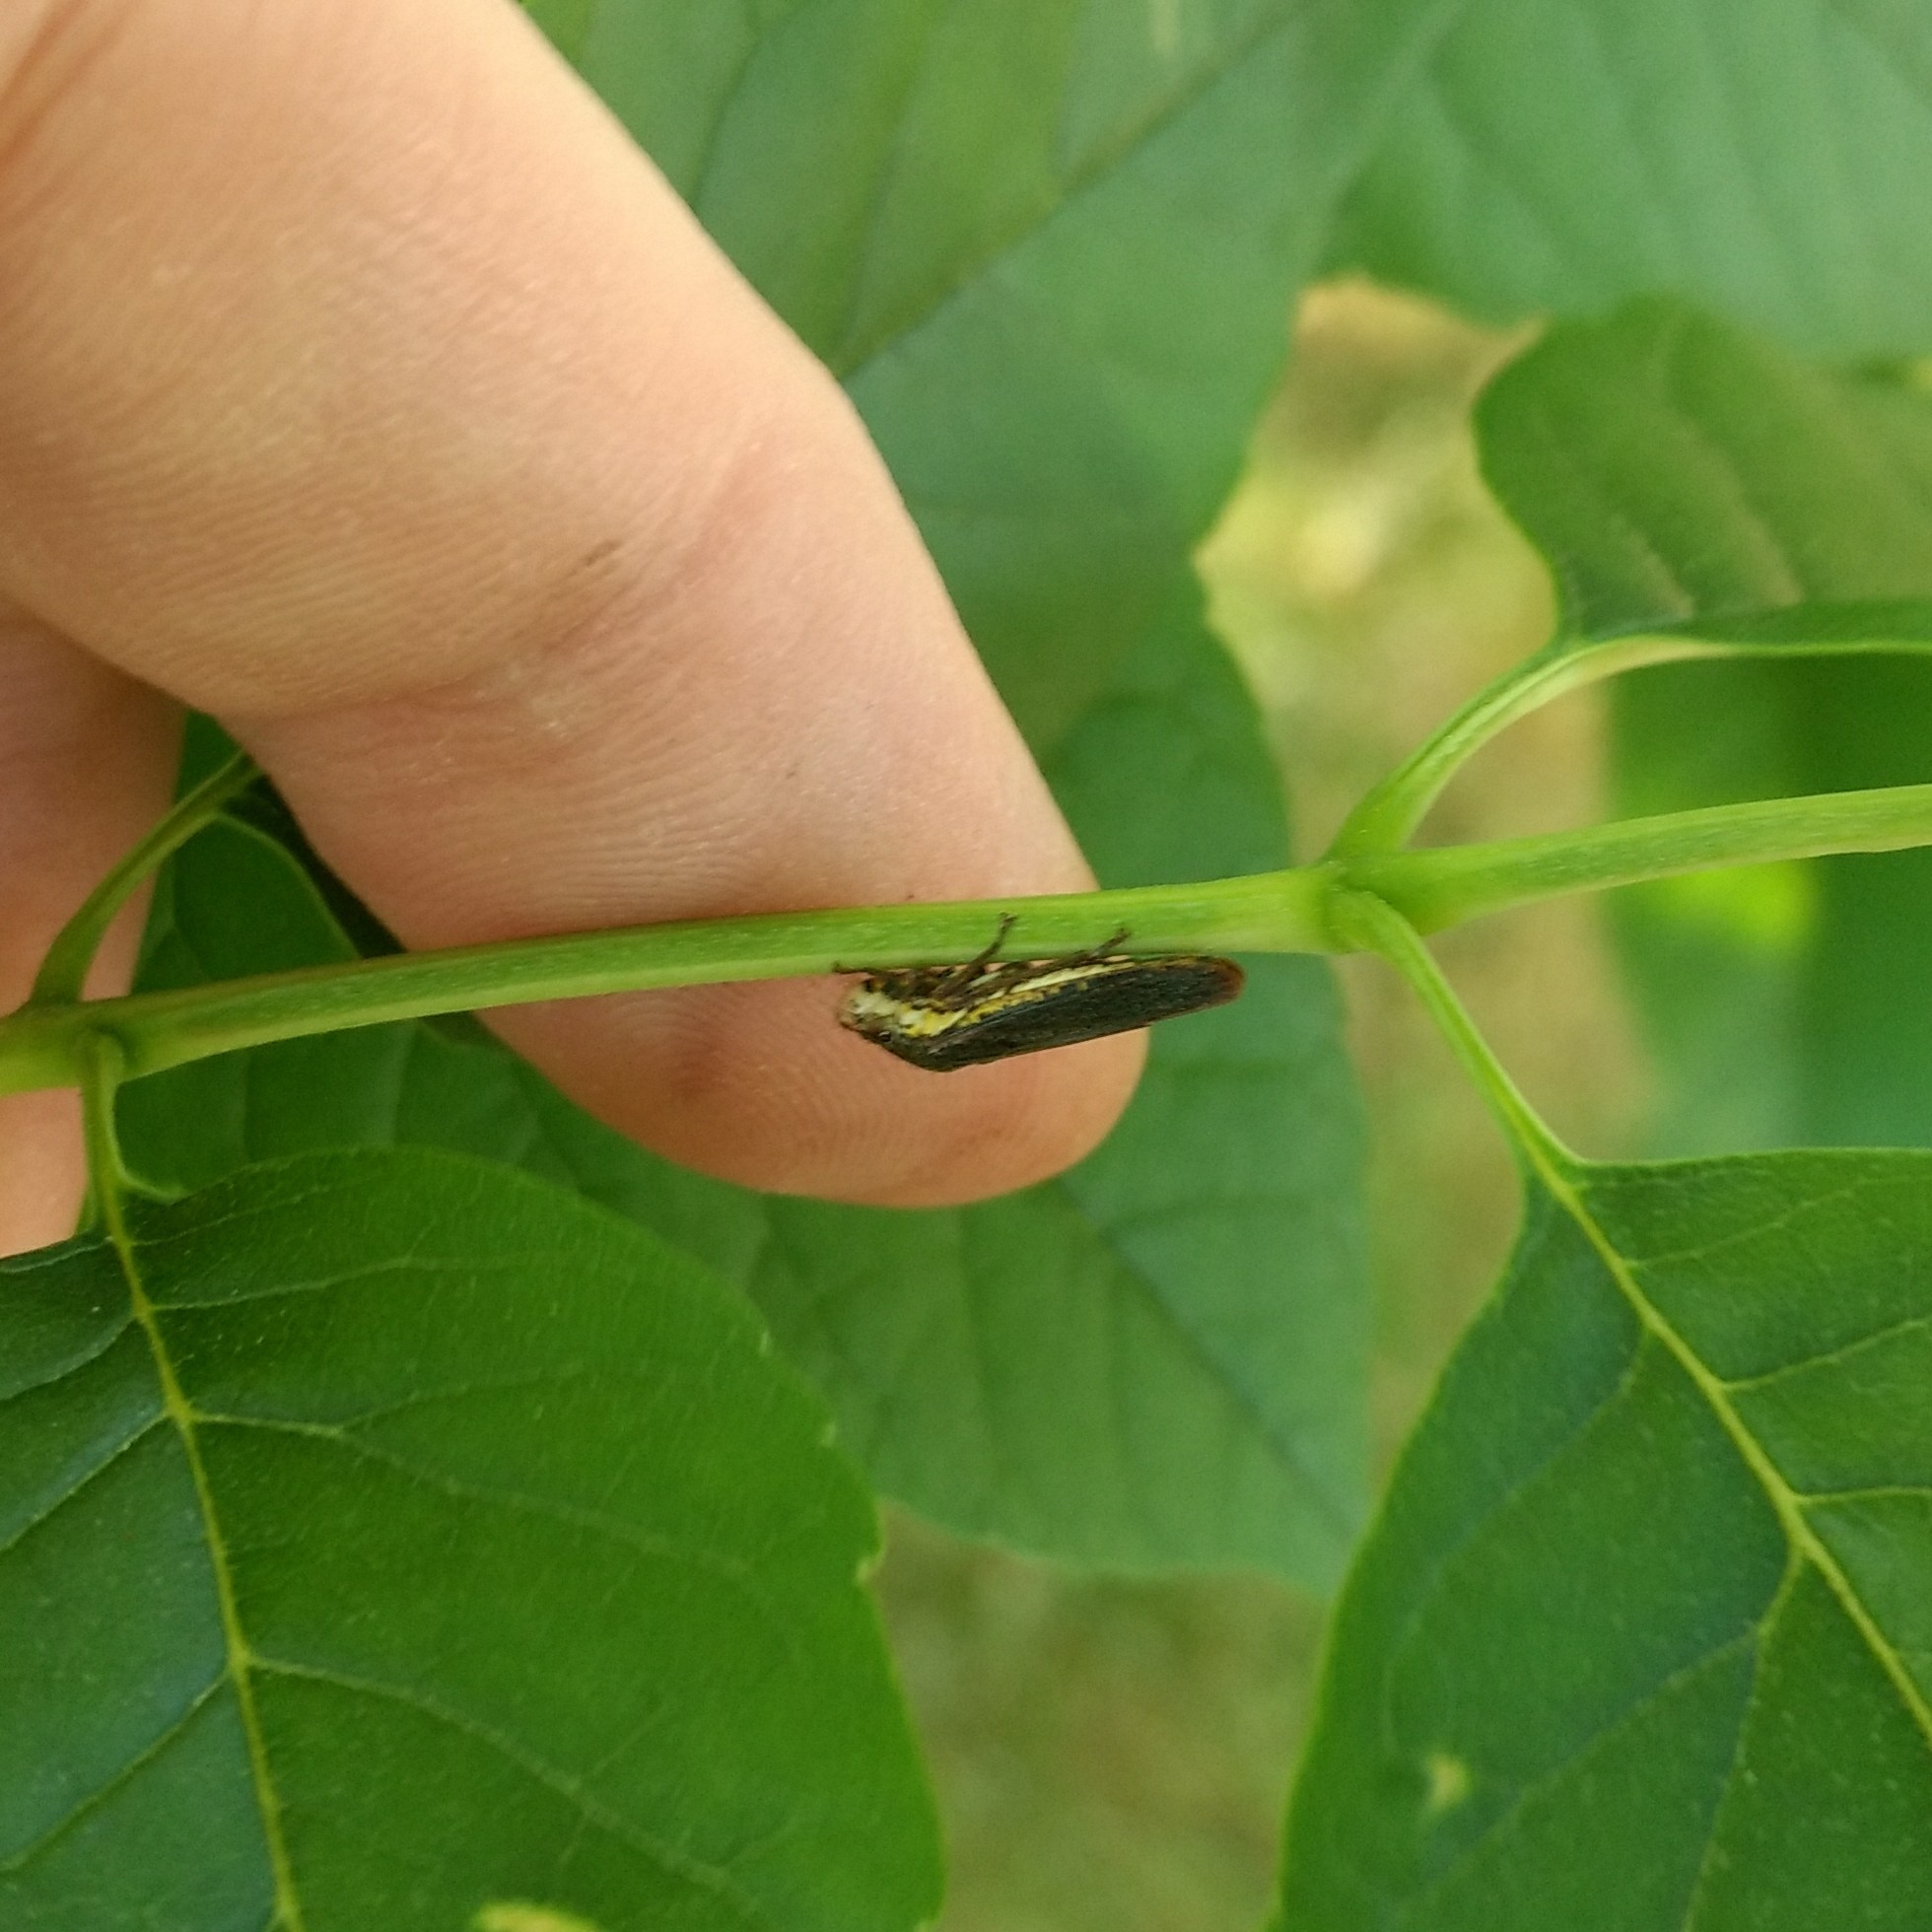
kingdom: Animalia
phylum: Arthropoda
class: Insecta
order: Hemiptera
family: Cicadellidae
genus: Paraulacizes
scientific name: Paraulacizes irrorata
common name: Speckled sharpshooter
